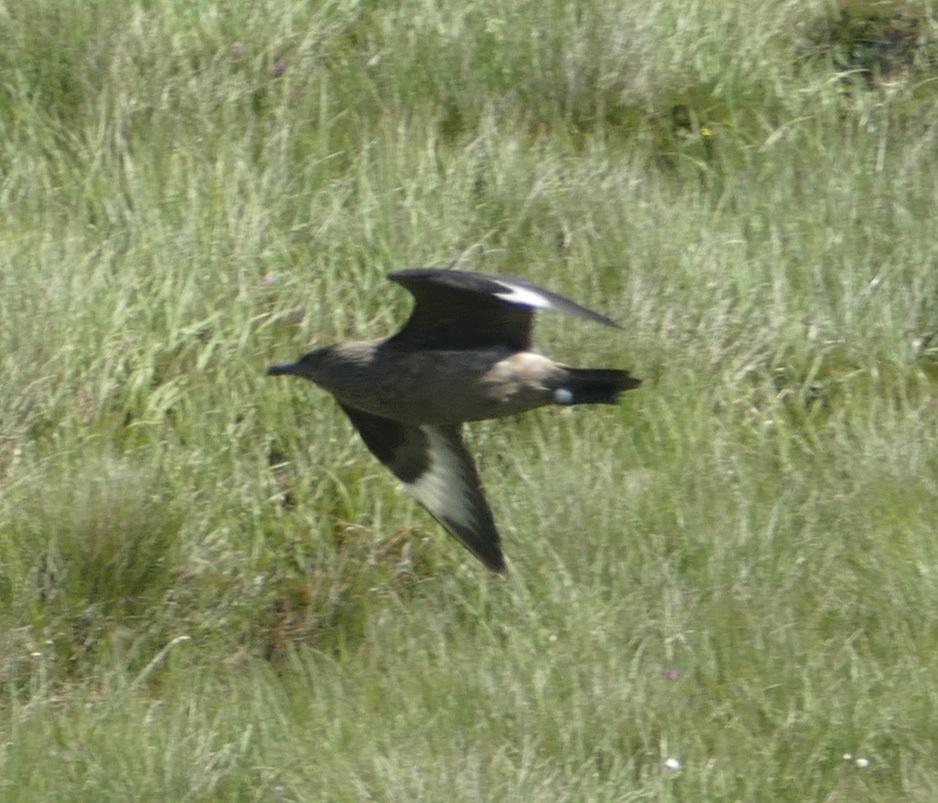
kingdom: Animalia
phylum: Chordata
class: Aves
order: Charadriiformes
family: Stercorariidae
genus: Stercorarius
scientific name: Stercorarius skua
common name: Great skua
